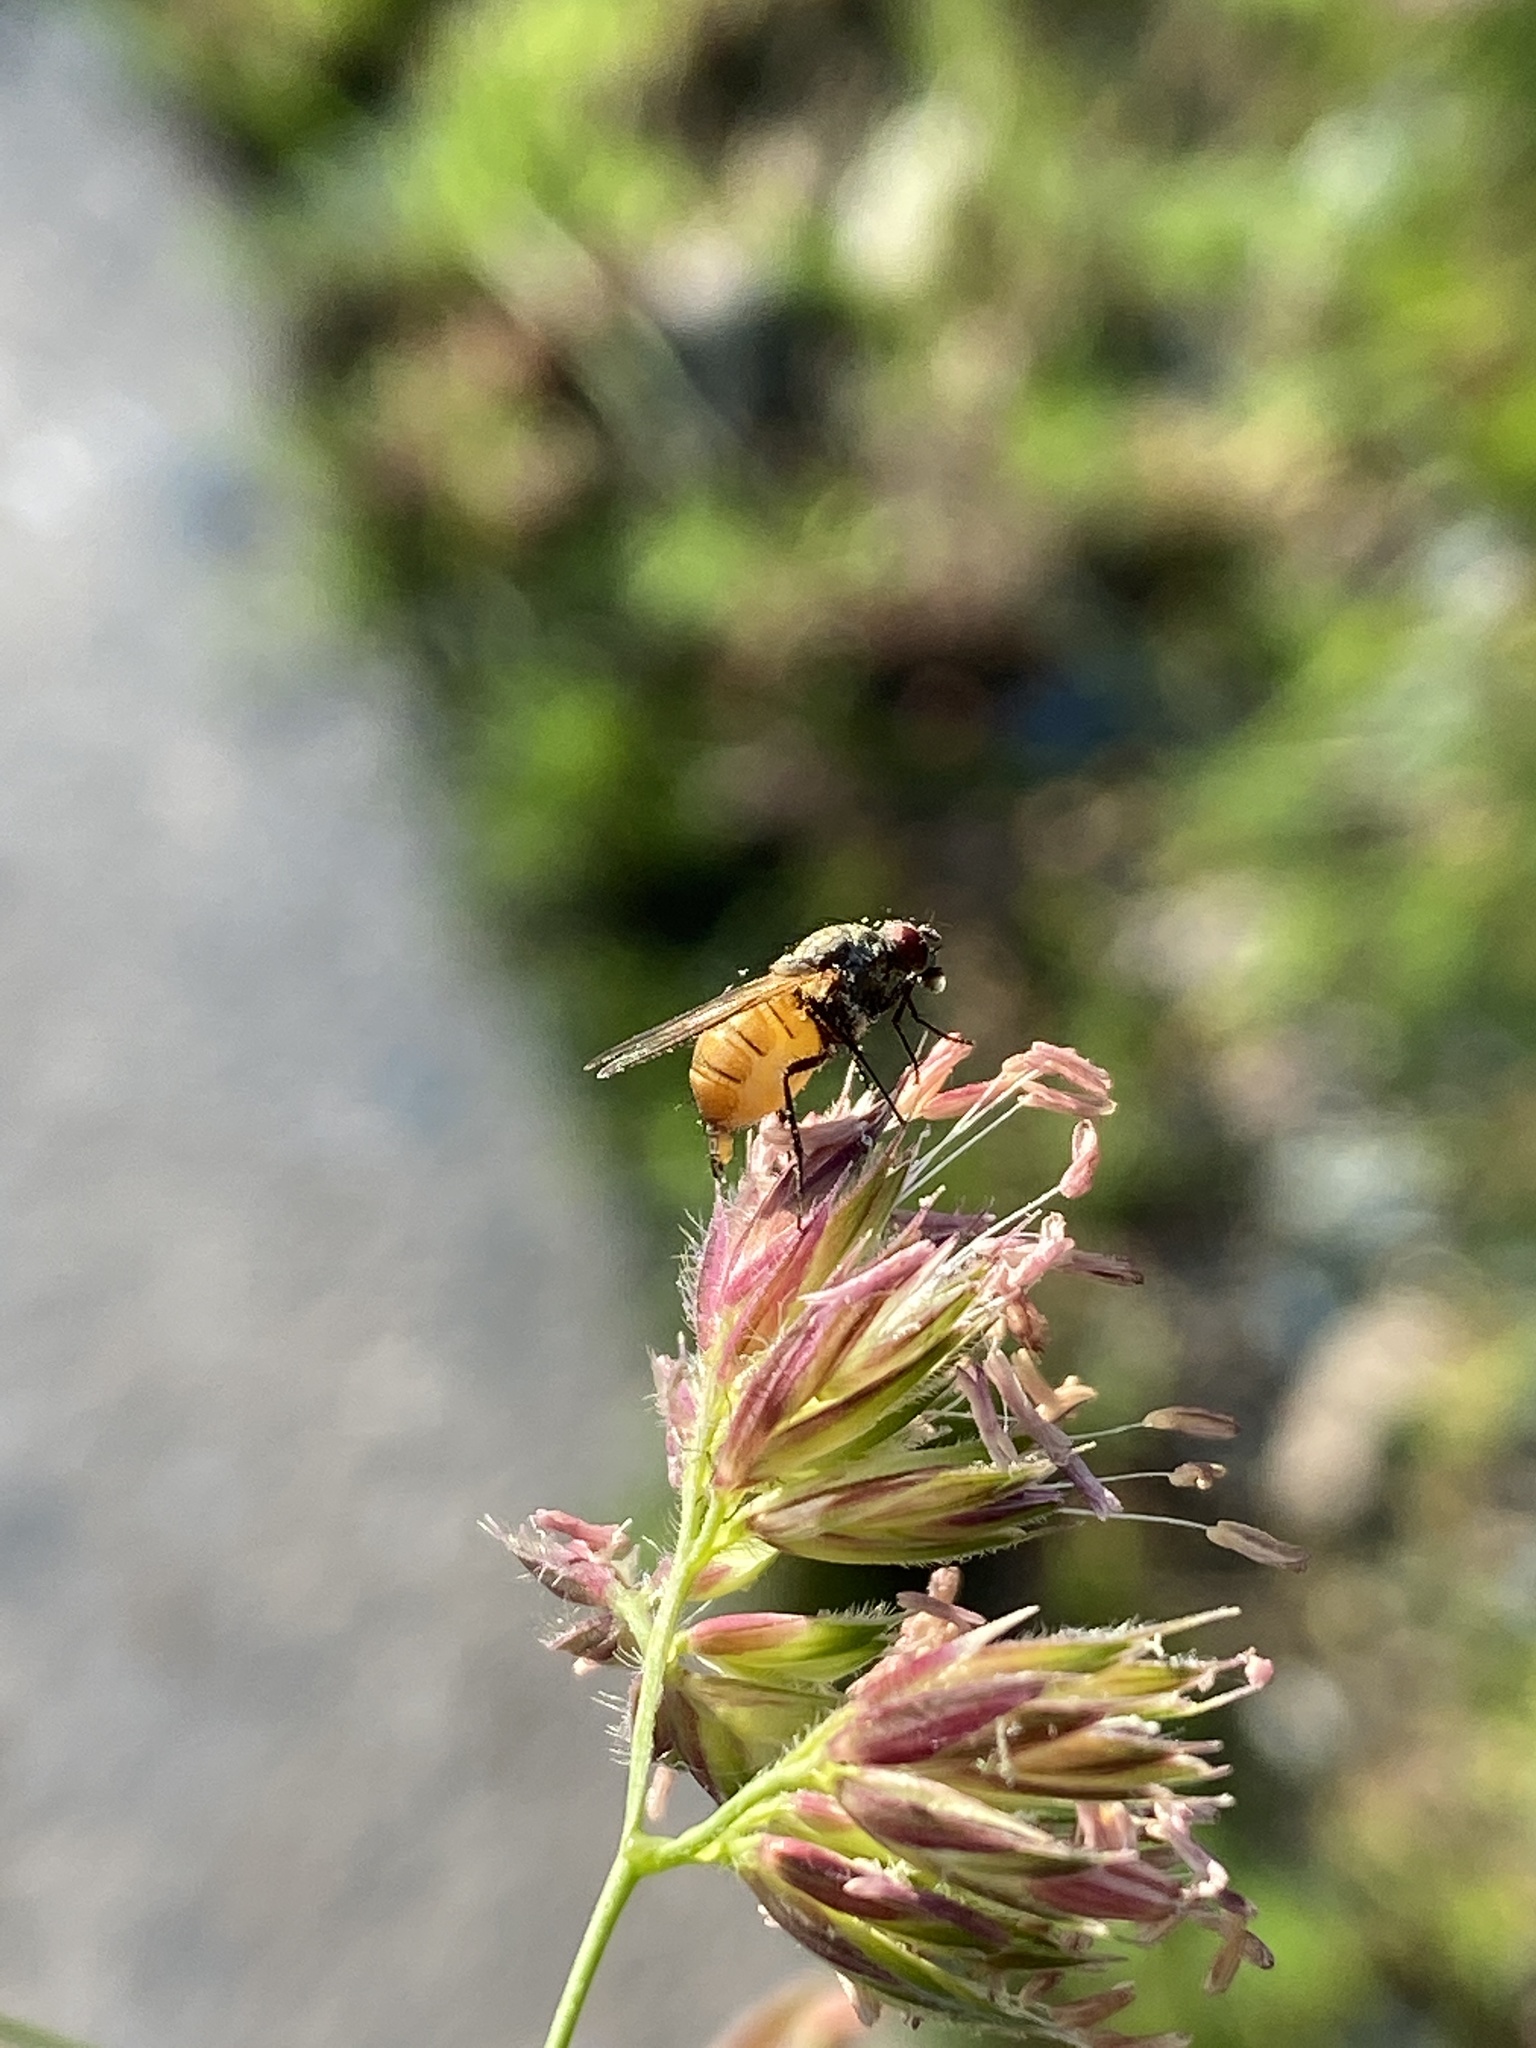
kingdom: Animalia
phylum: Arthropoda
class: Insecta
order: Diptera
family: Muscidae
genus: Thricops
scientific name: Thricops semicinereus
